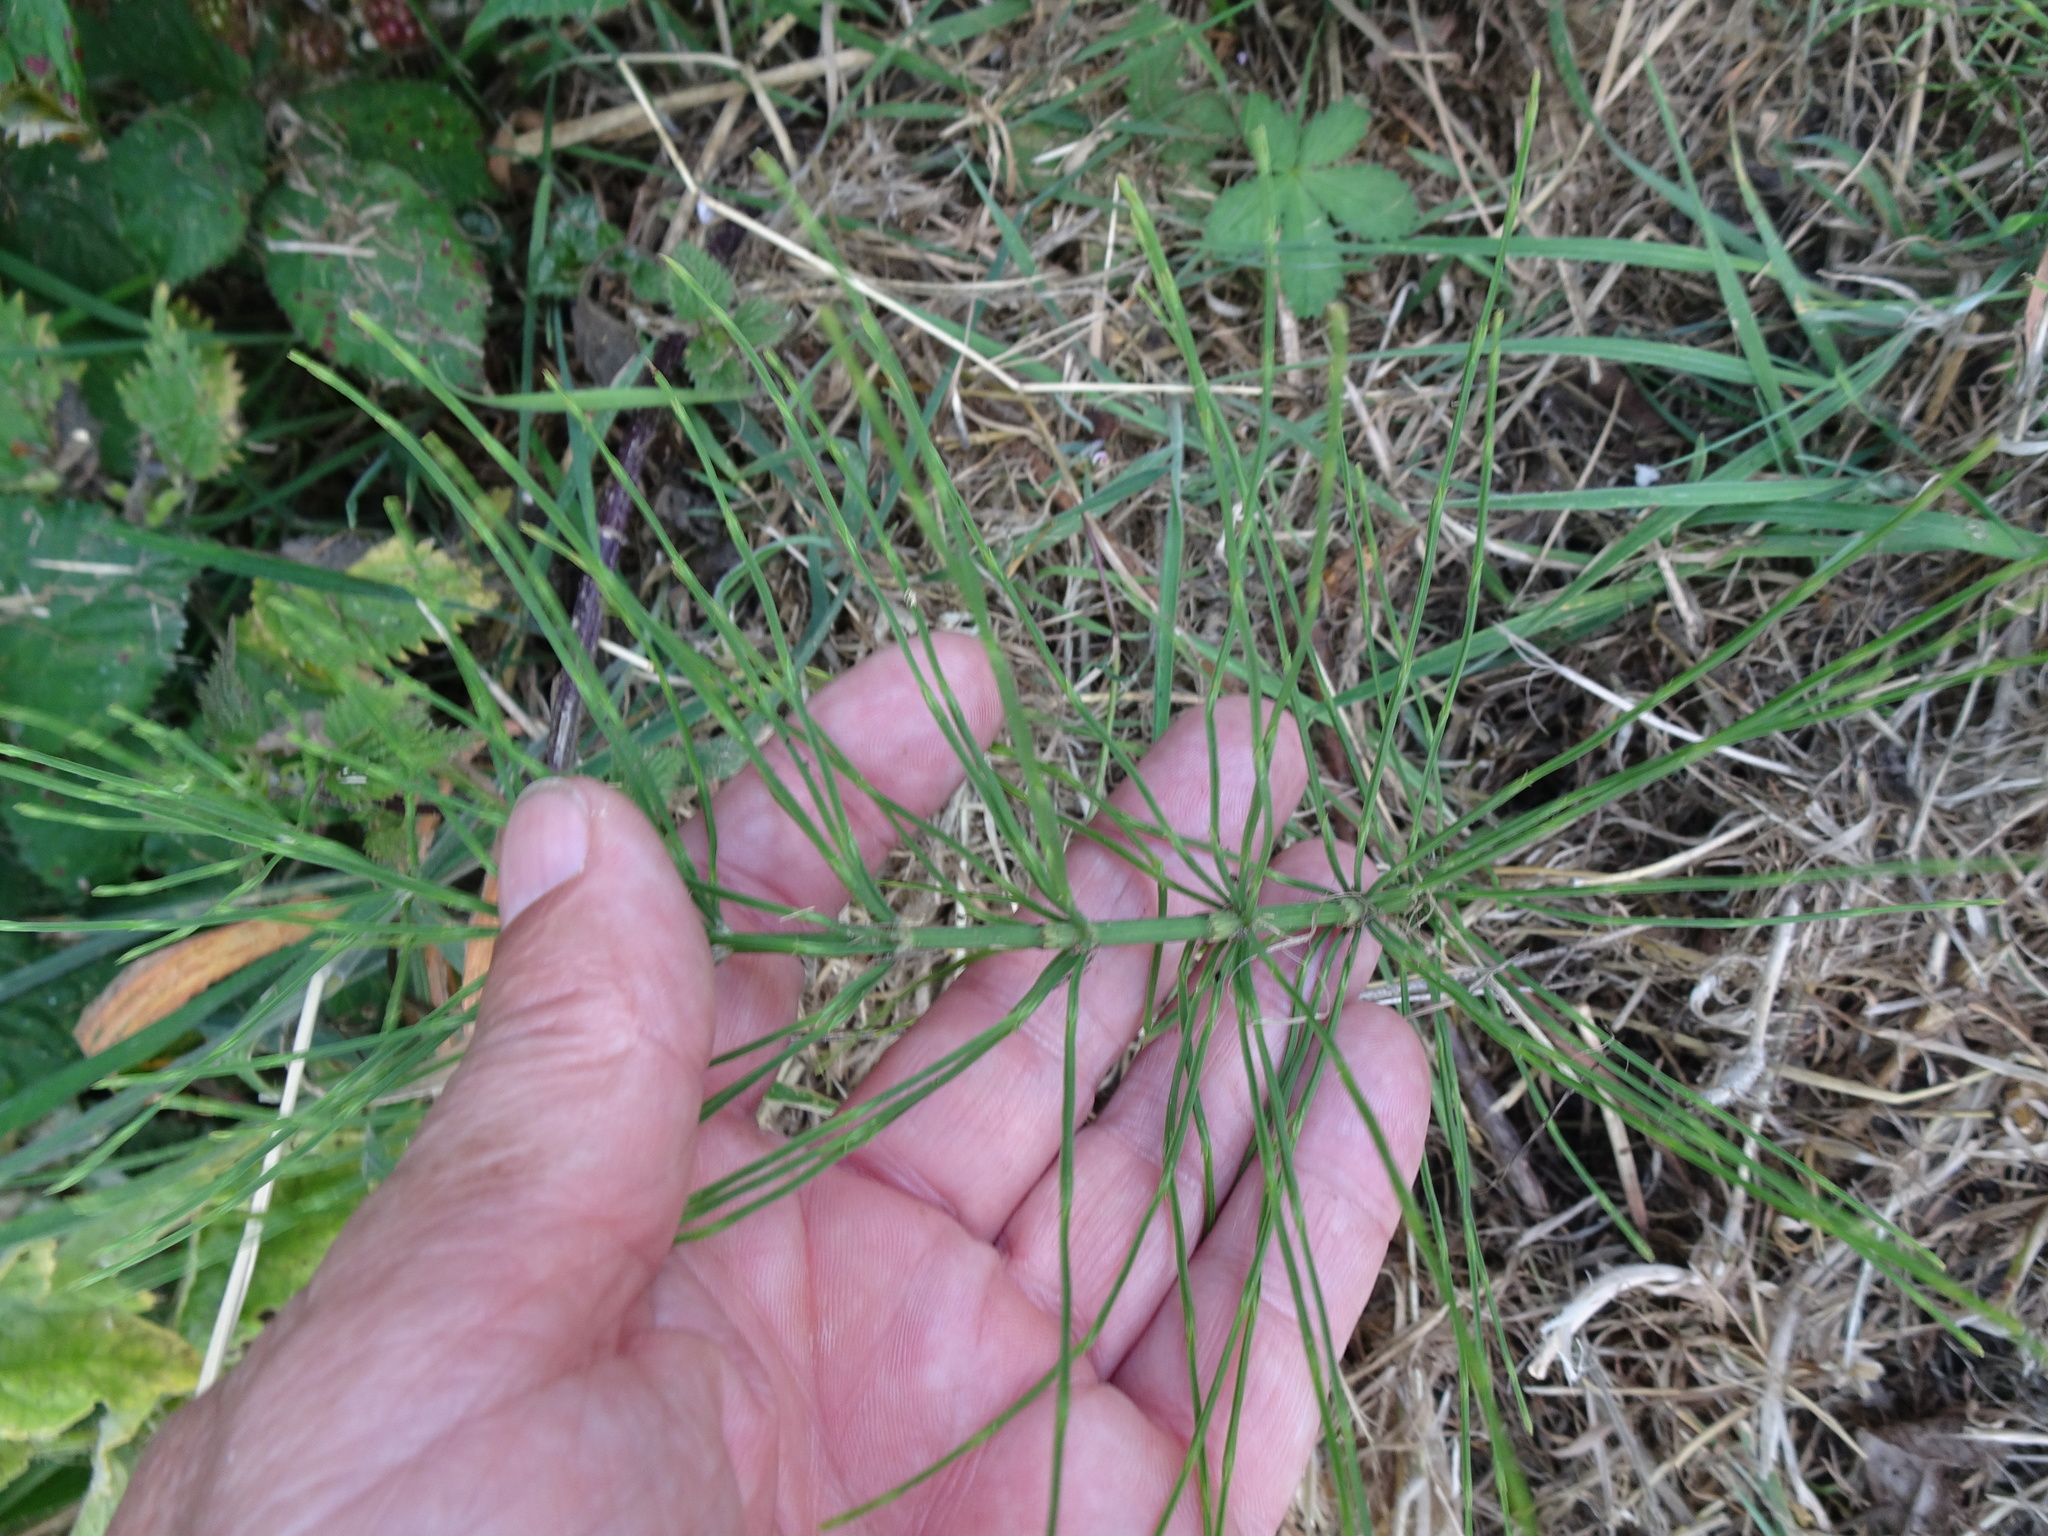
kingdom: Plantae
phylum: Tracheophyta
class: Polypodiopsida
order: Equisetales
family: Equisetaceae
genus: Equisetum
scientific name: Equisetum arvense
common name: Field horsetail
